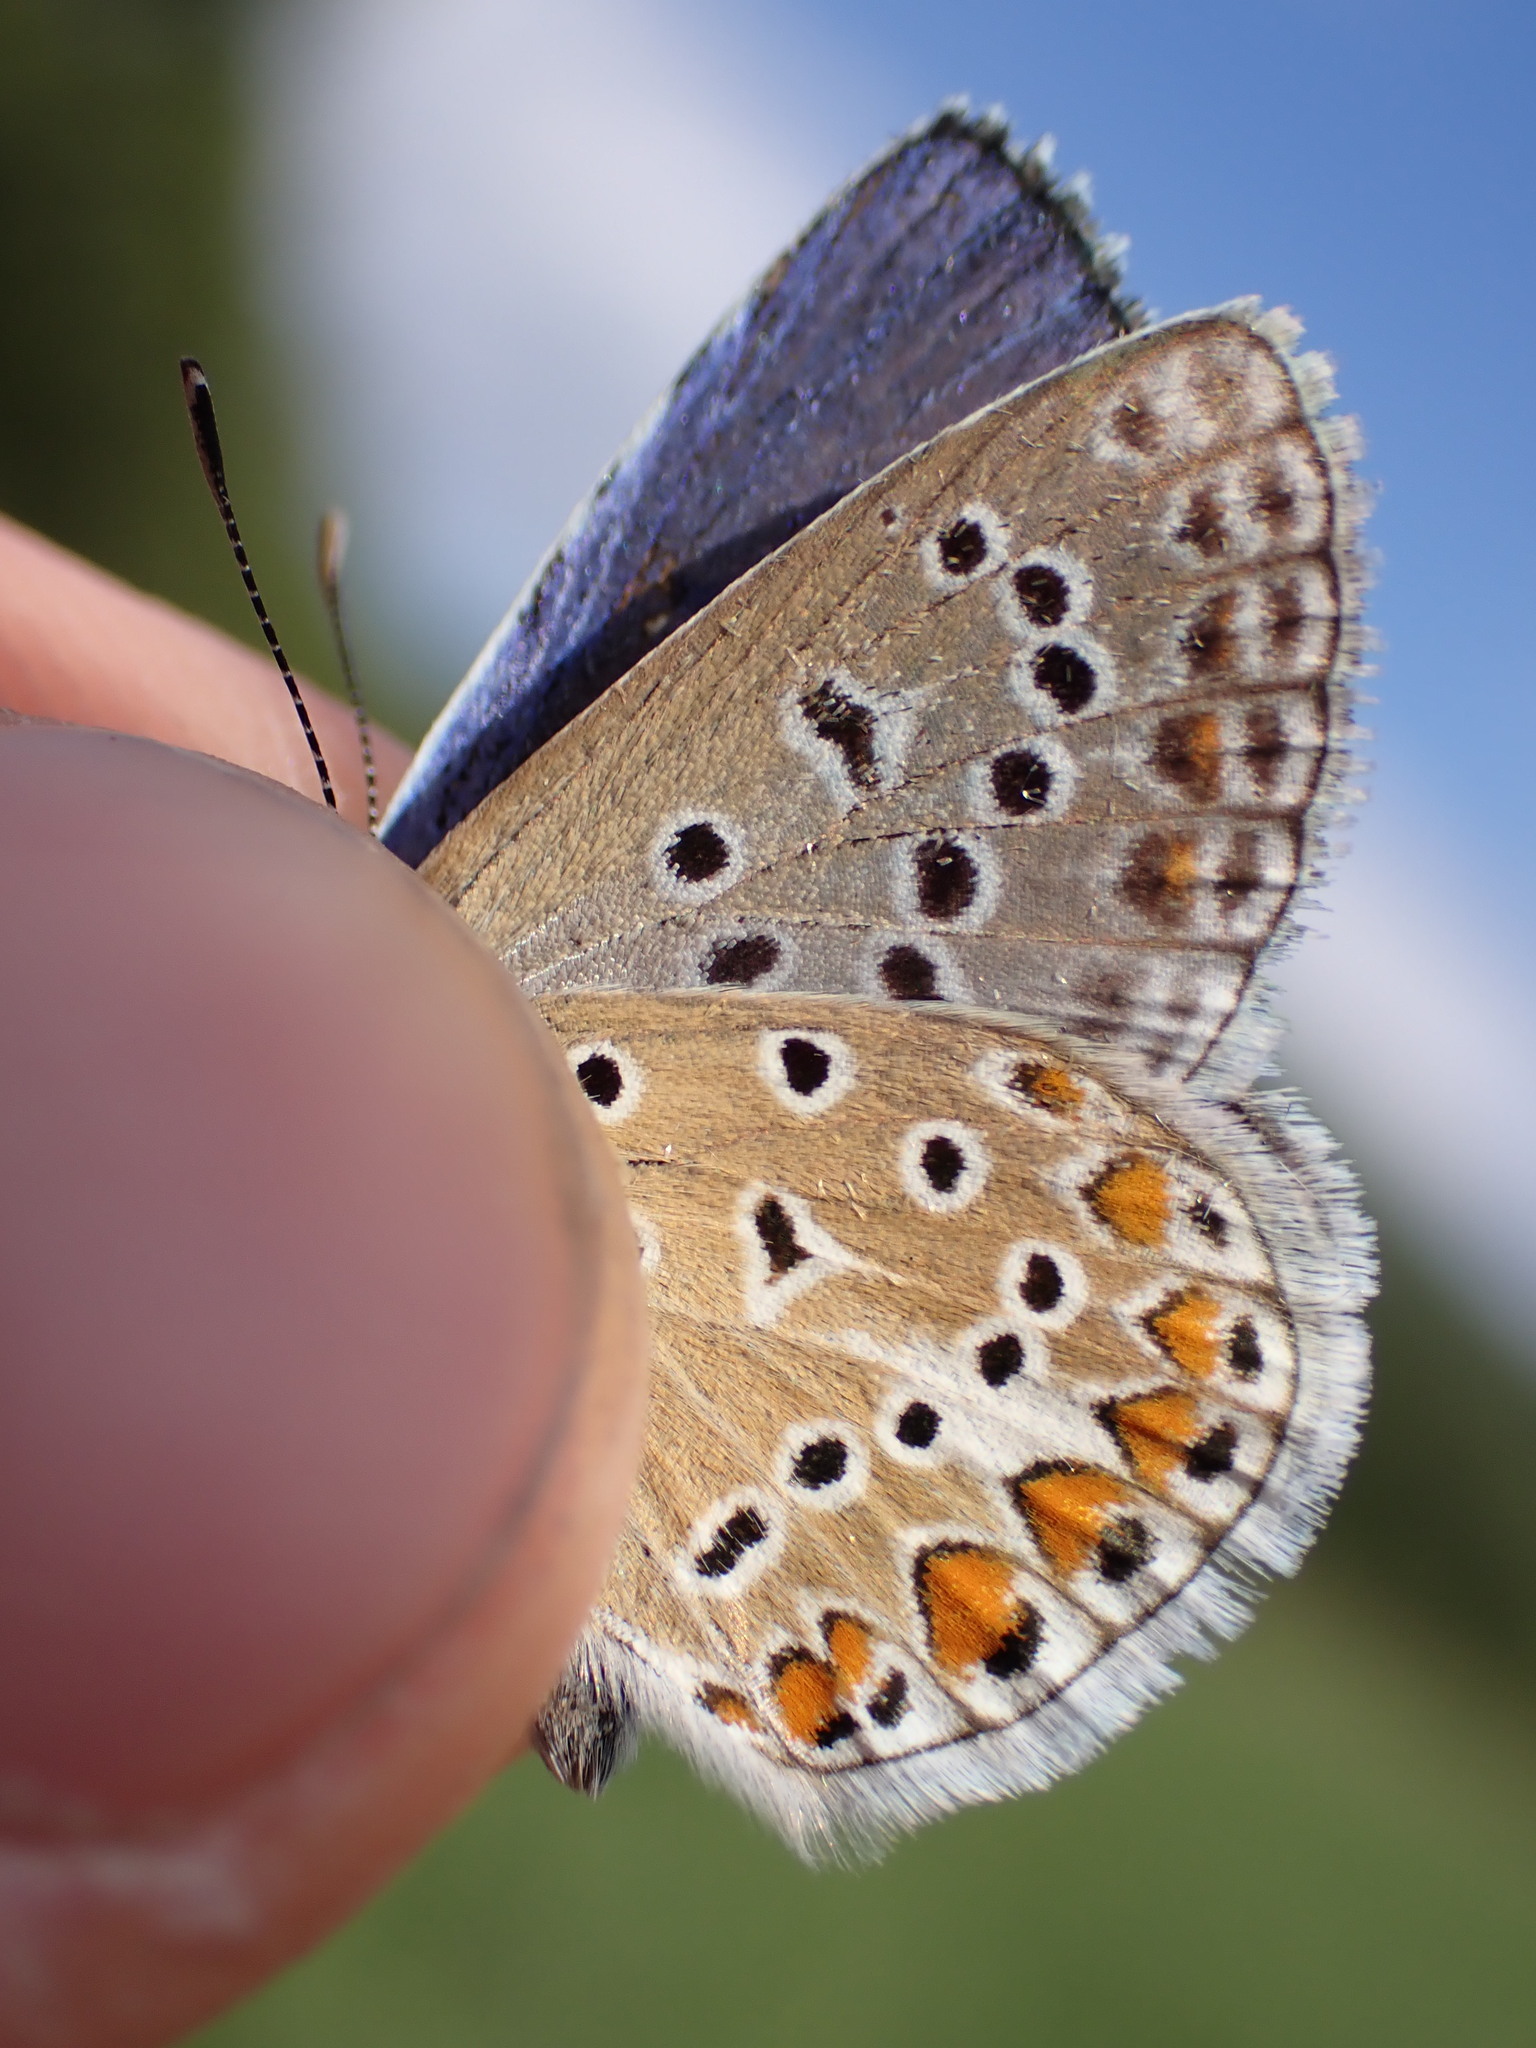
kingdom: Animalia
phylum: Arthropoda
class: Insecta
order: Lepidoptera
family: Lycaenidae
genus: Polyommatus
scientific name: Polyommatus icarus
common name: Common blue
